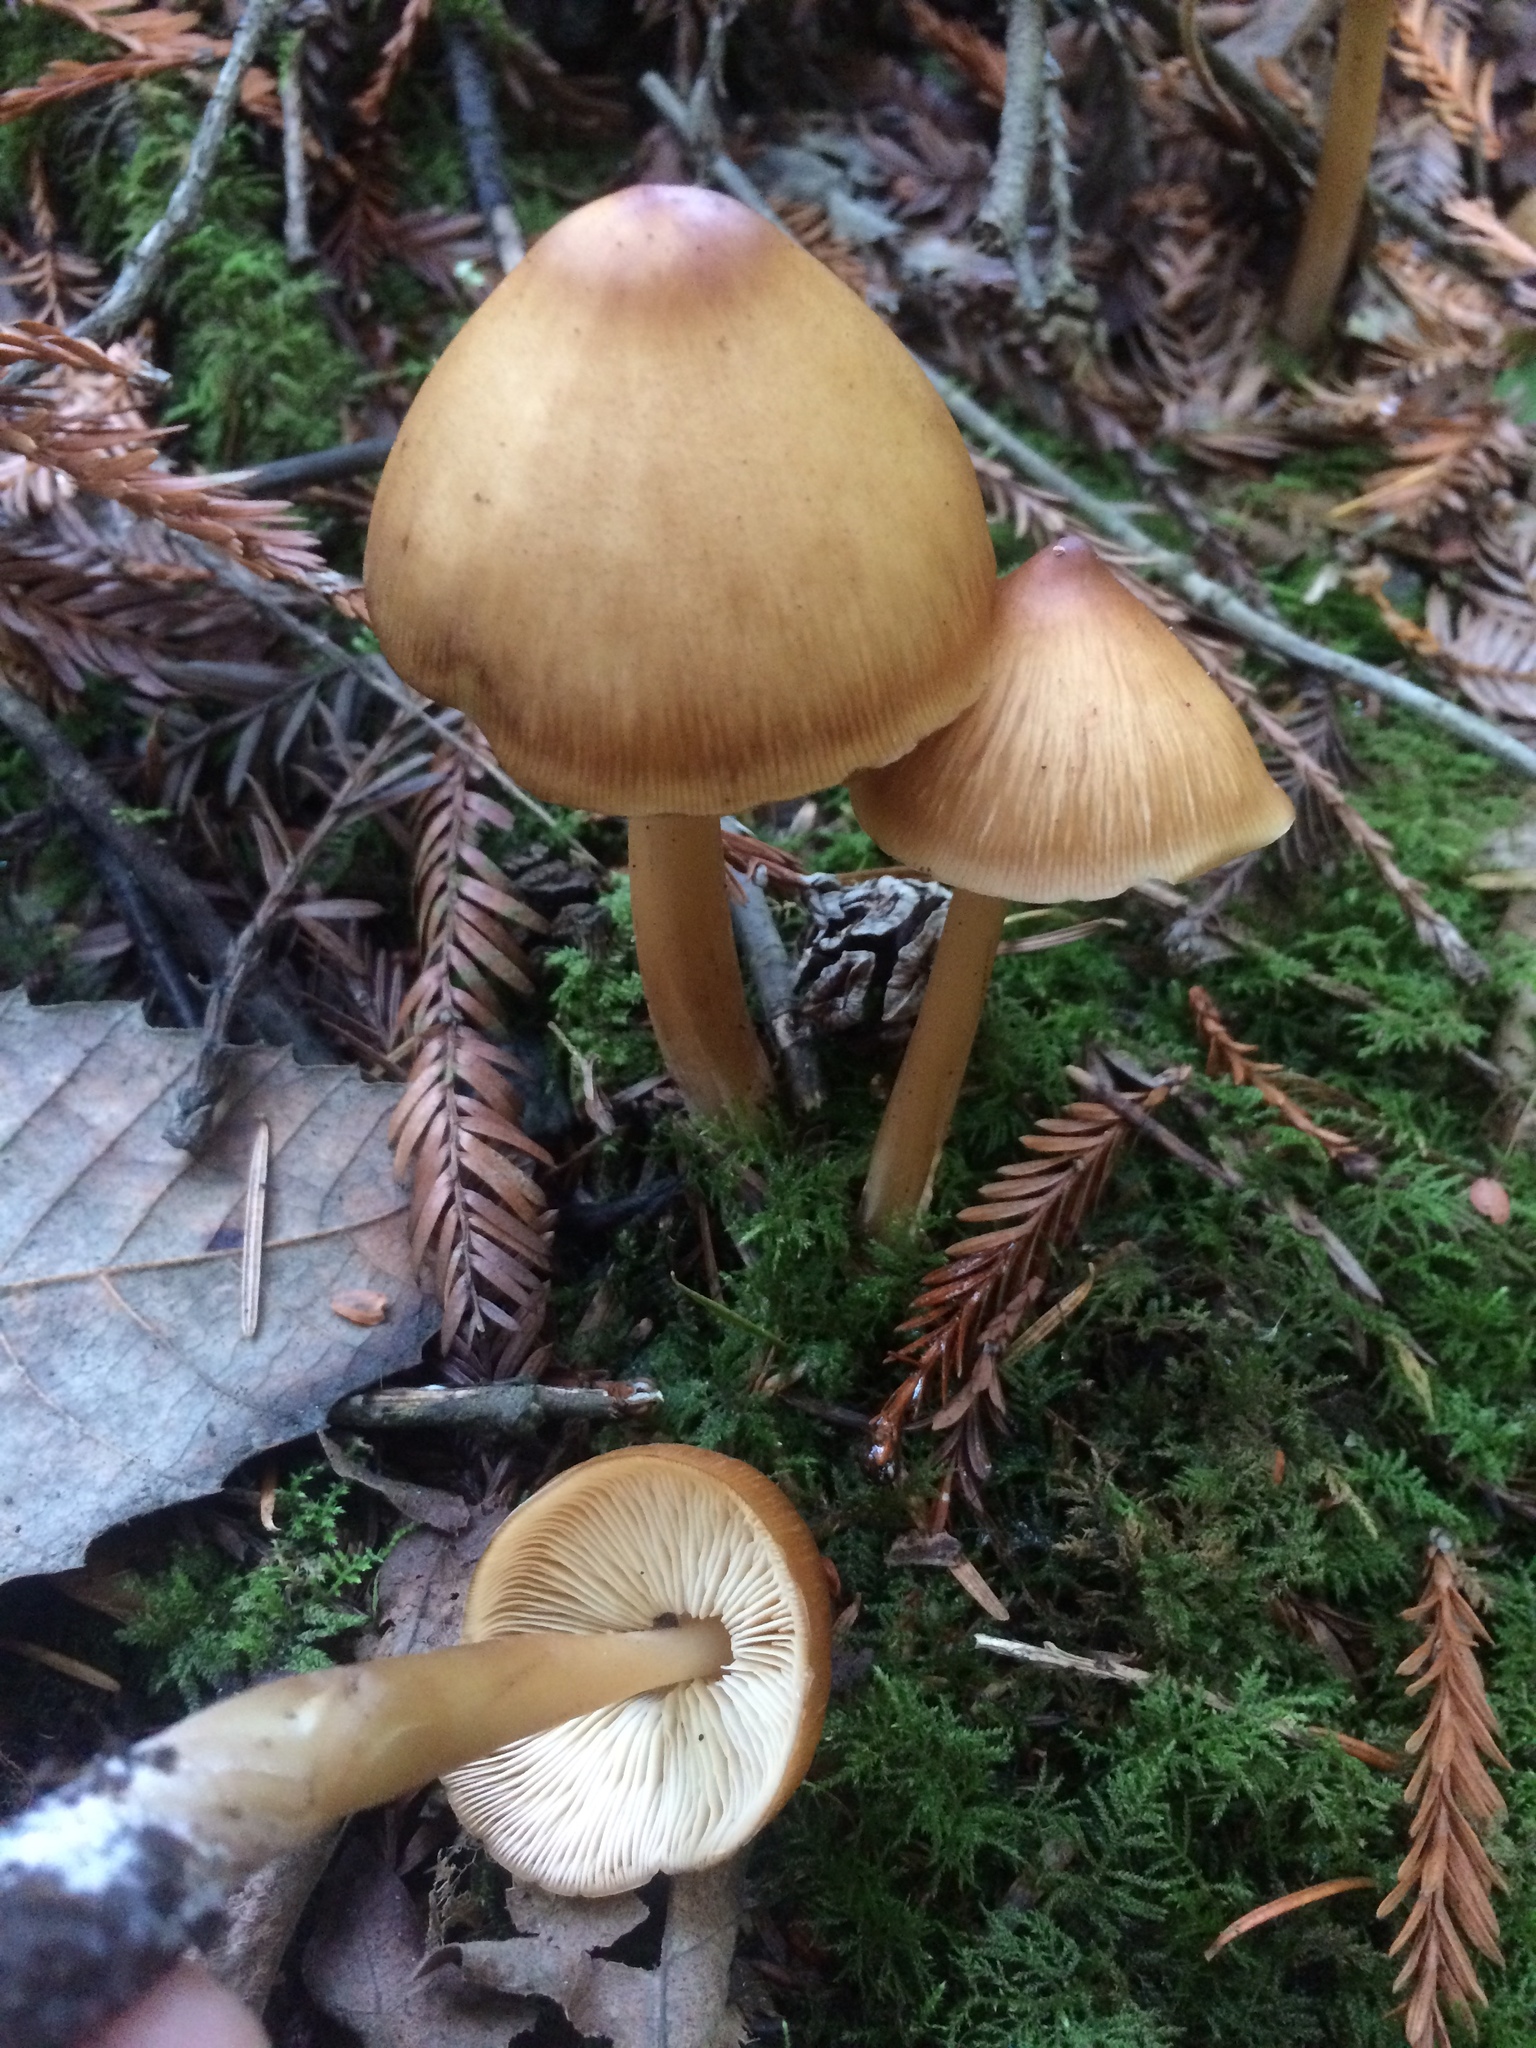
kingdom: Fungi
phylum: Basidiomycota
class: Agaricomycetes
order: Agaricales
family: Tricholomataceae
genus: Caulorhiza
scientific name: Caulorhiza umbonata
